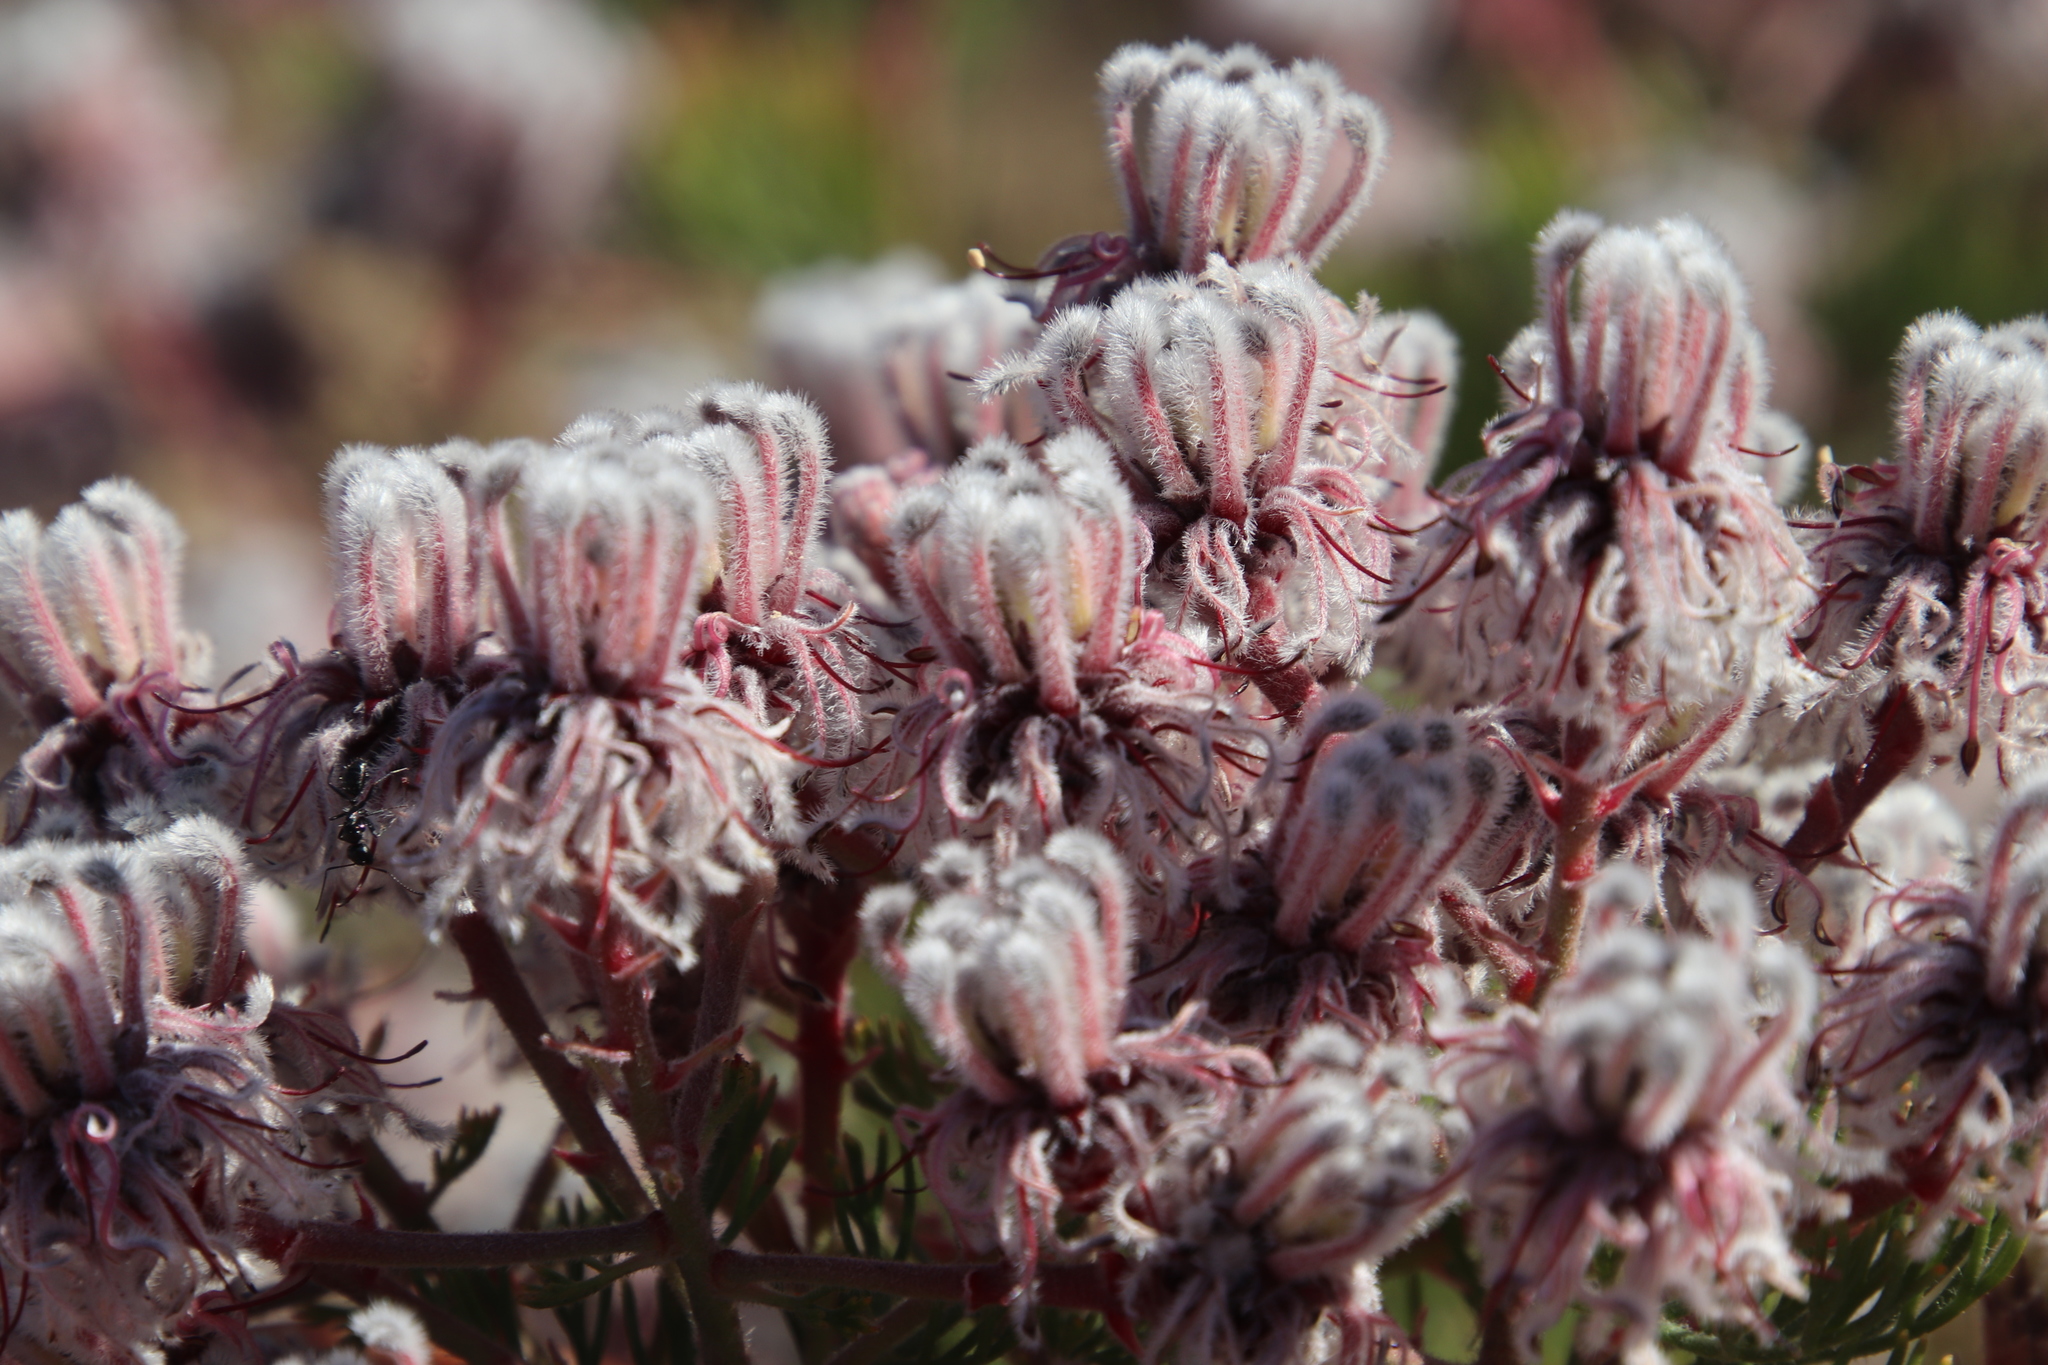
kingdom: Plantae
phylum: Tracheophyta
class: Magnoliopsida
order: Proteales
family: Proteaceae
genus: Serruria
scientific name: Serruria aitonii
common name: Marshmallow spiderhead
